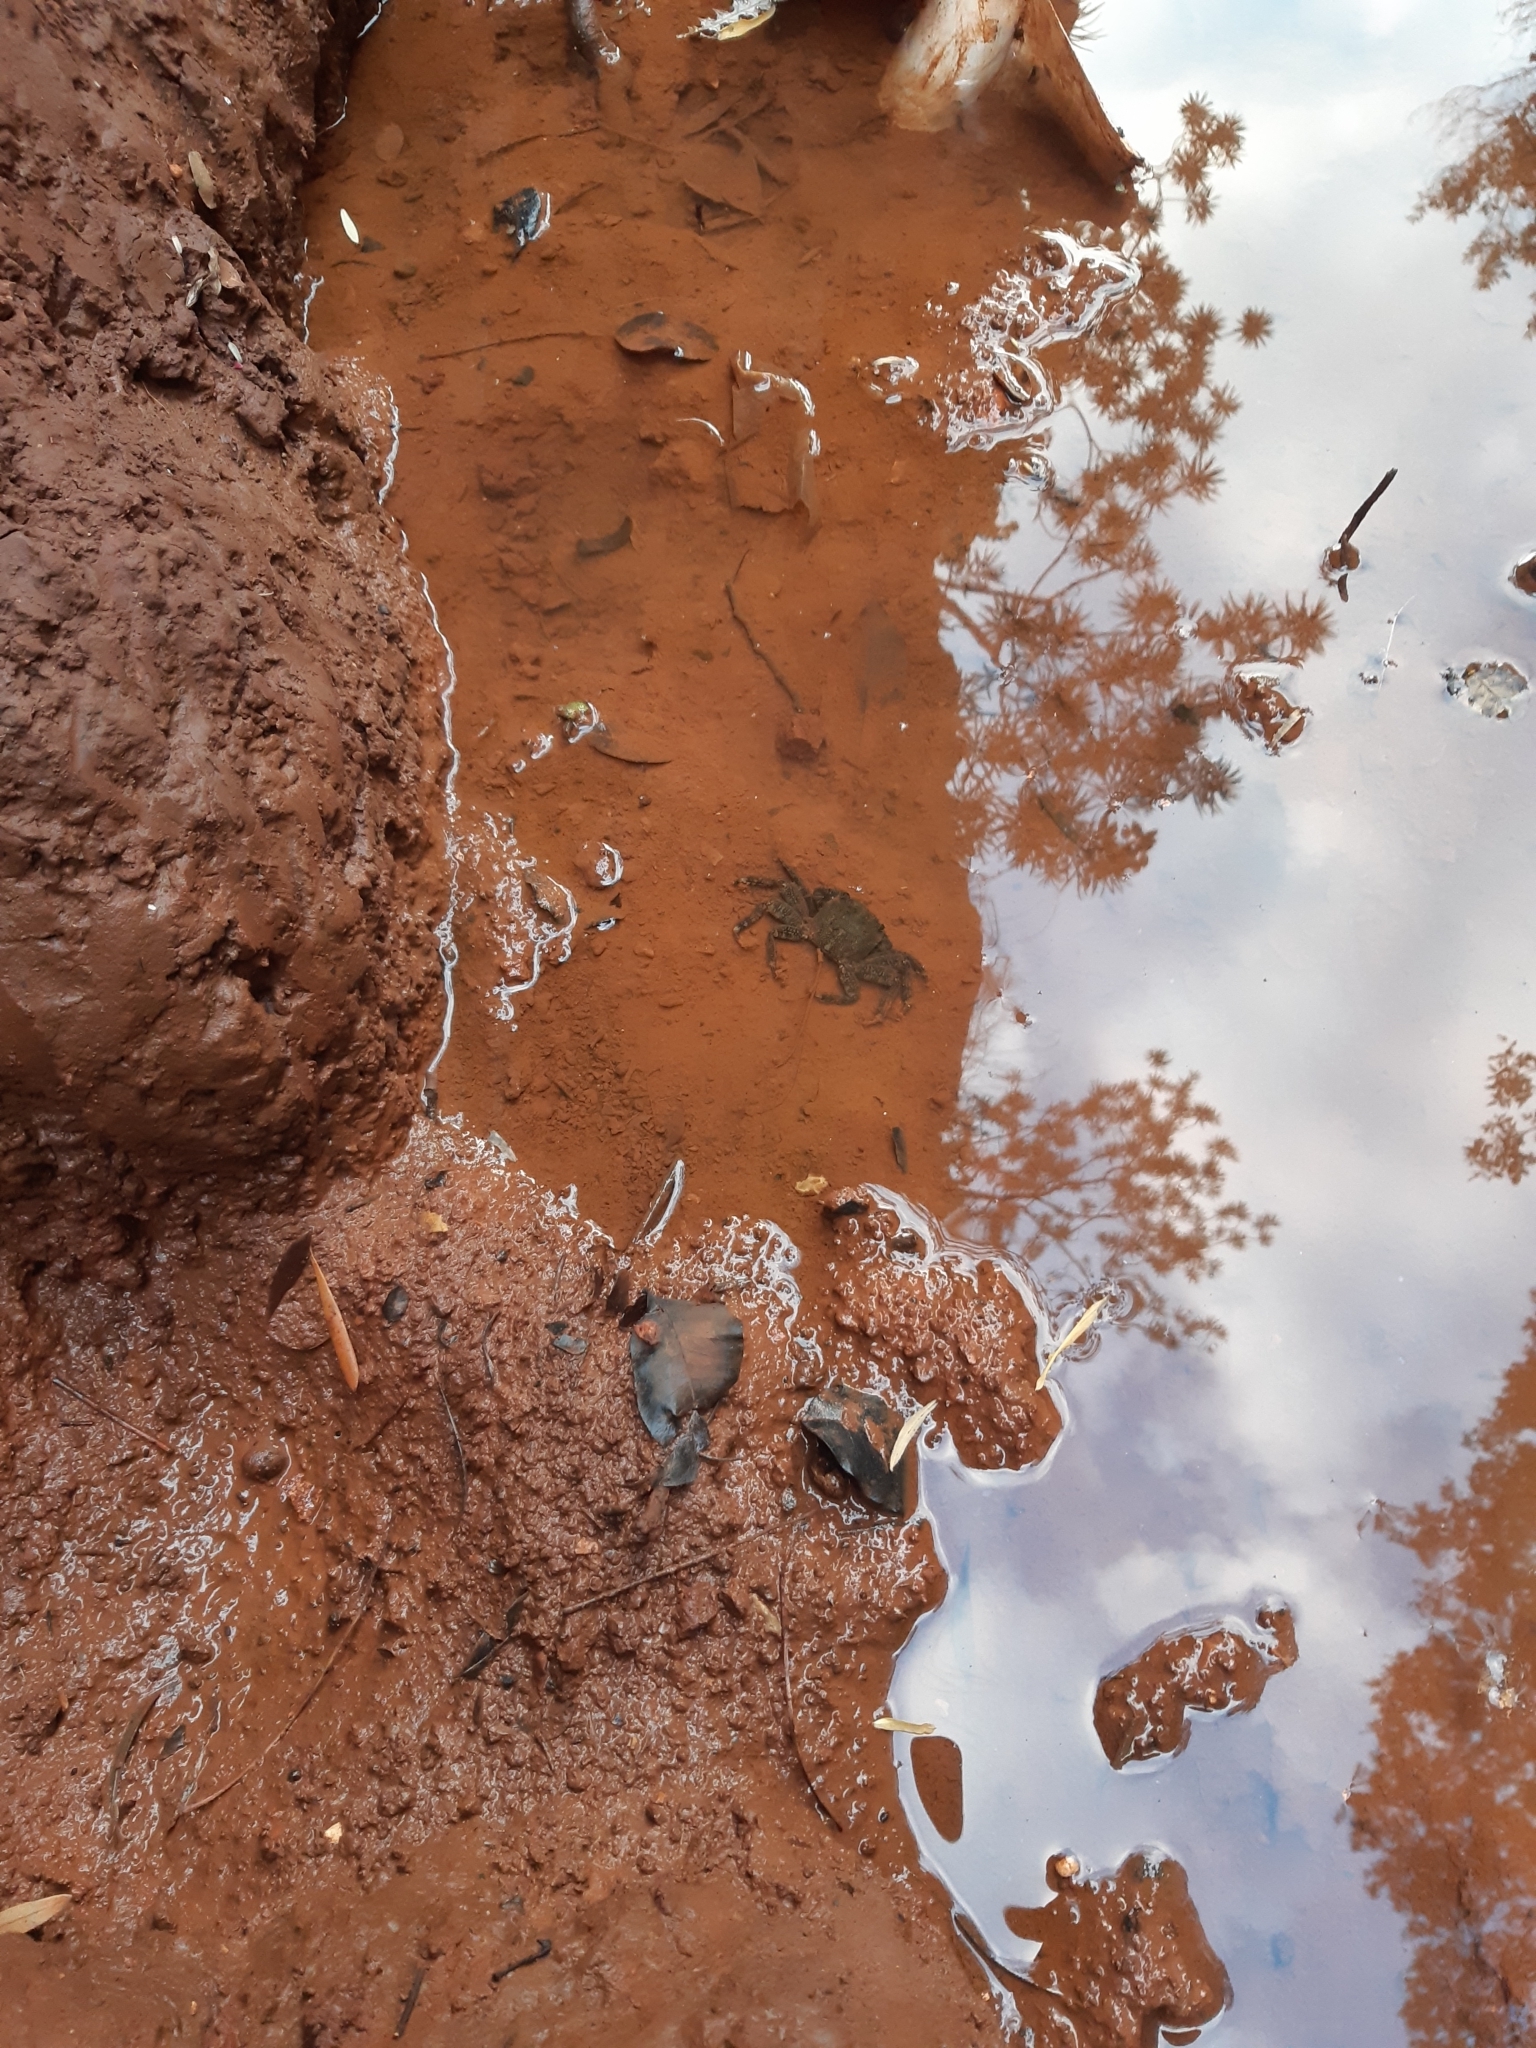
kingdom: Animalia
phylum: Arthropoda
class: Malacostraca
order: Decapoda
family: Grapsidae
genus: Pachygrapsus
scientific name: Pachygrapsus marmoratus
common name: Marbled rock crab
